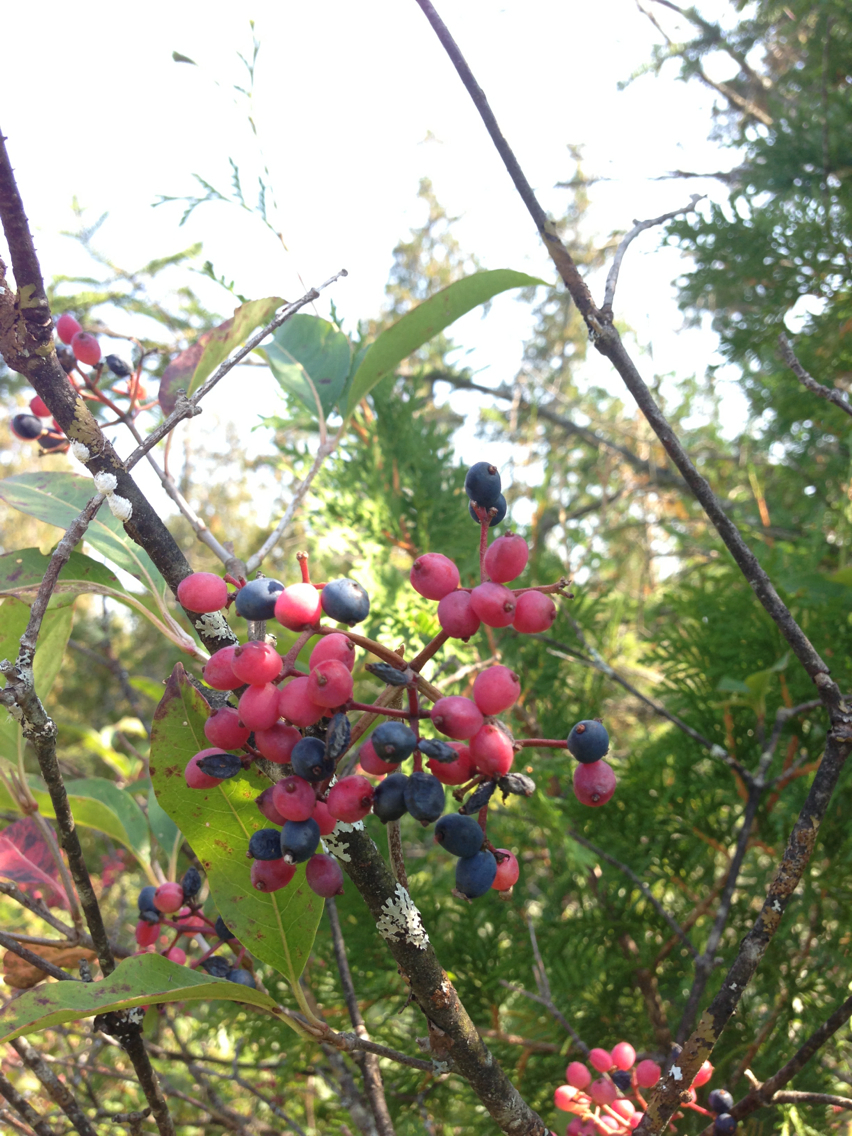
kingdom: Plantae
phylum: Tracheophyta
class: Magnoliopsida
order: Dipsacales
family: Viburnaceae
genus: Viburnum
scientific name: Viburnum cassinoides
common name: Swamp haw
